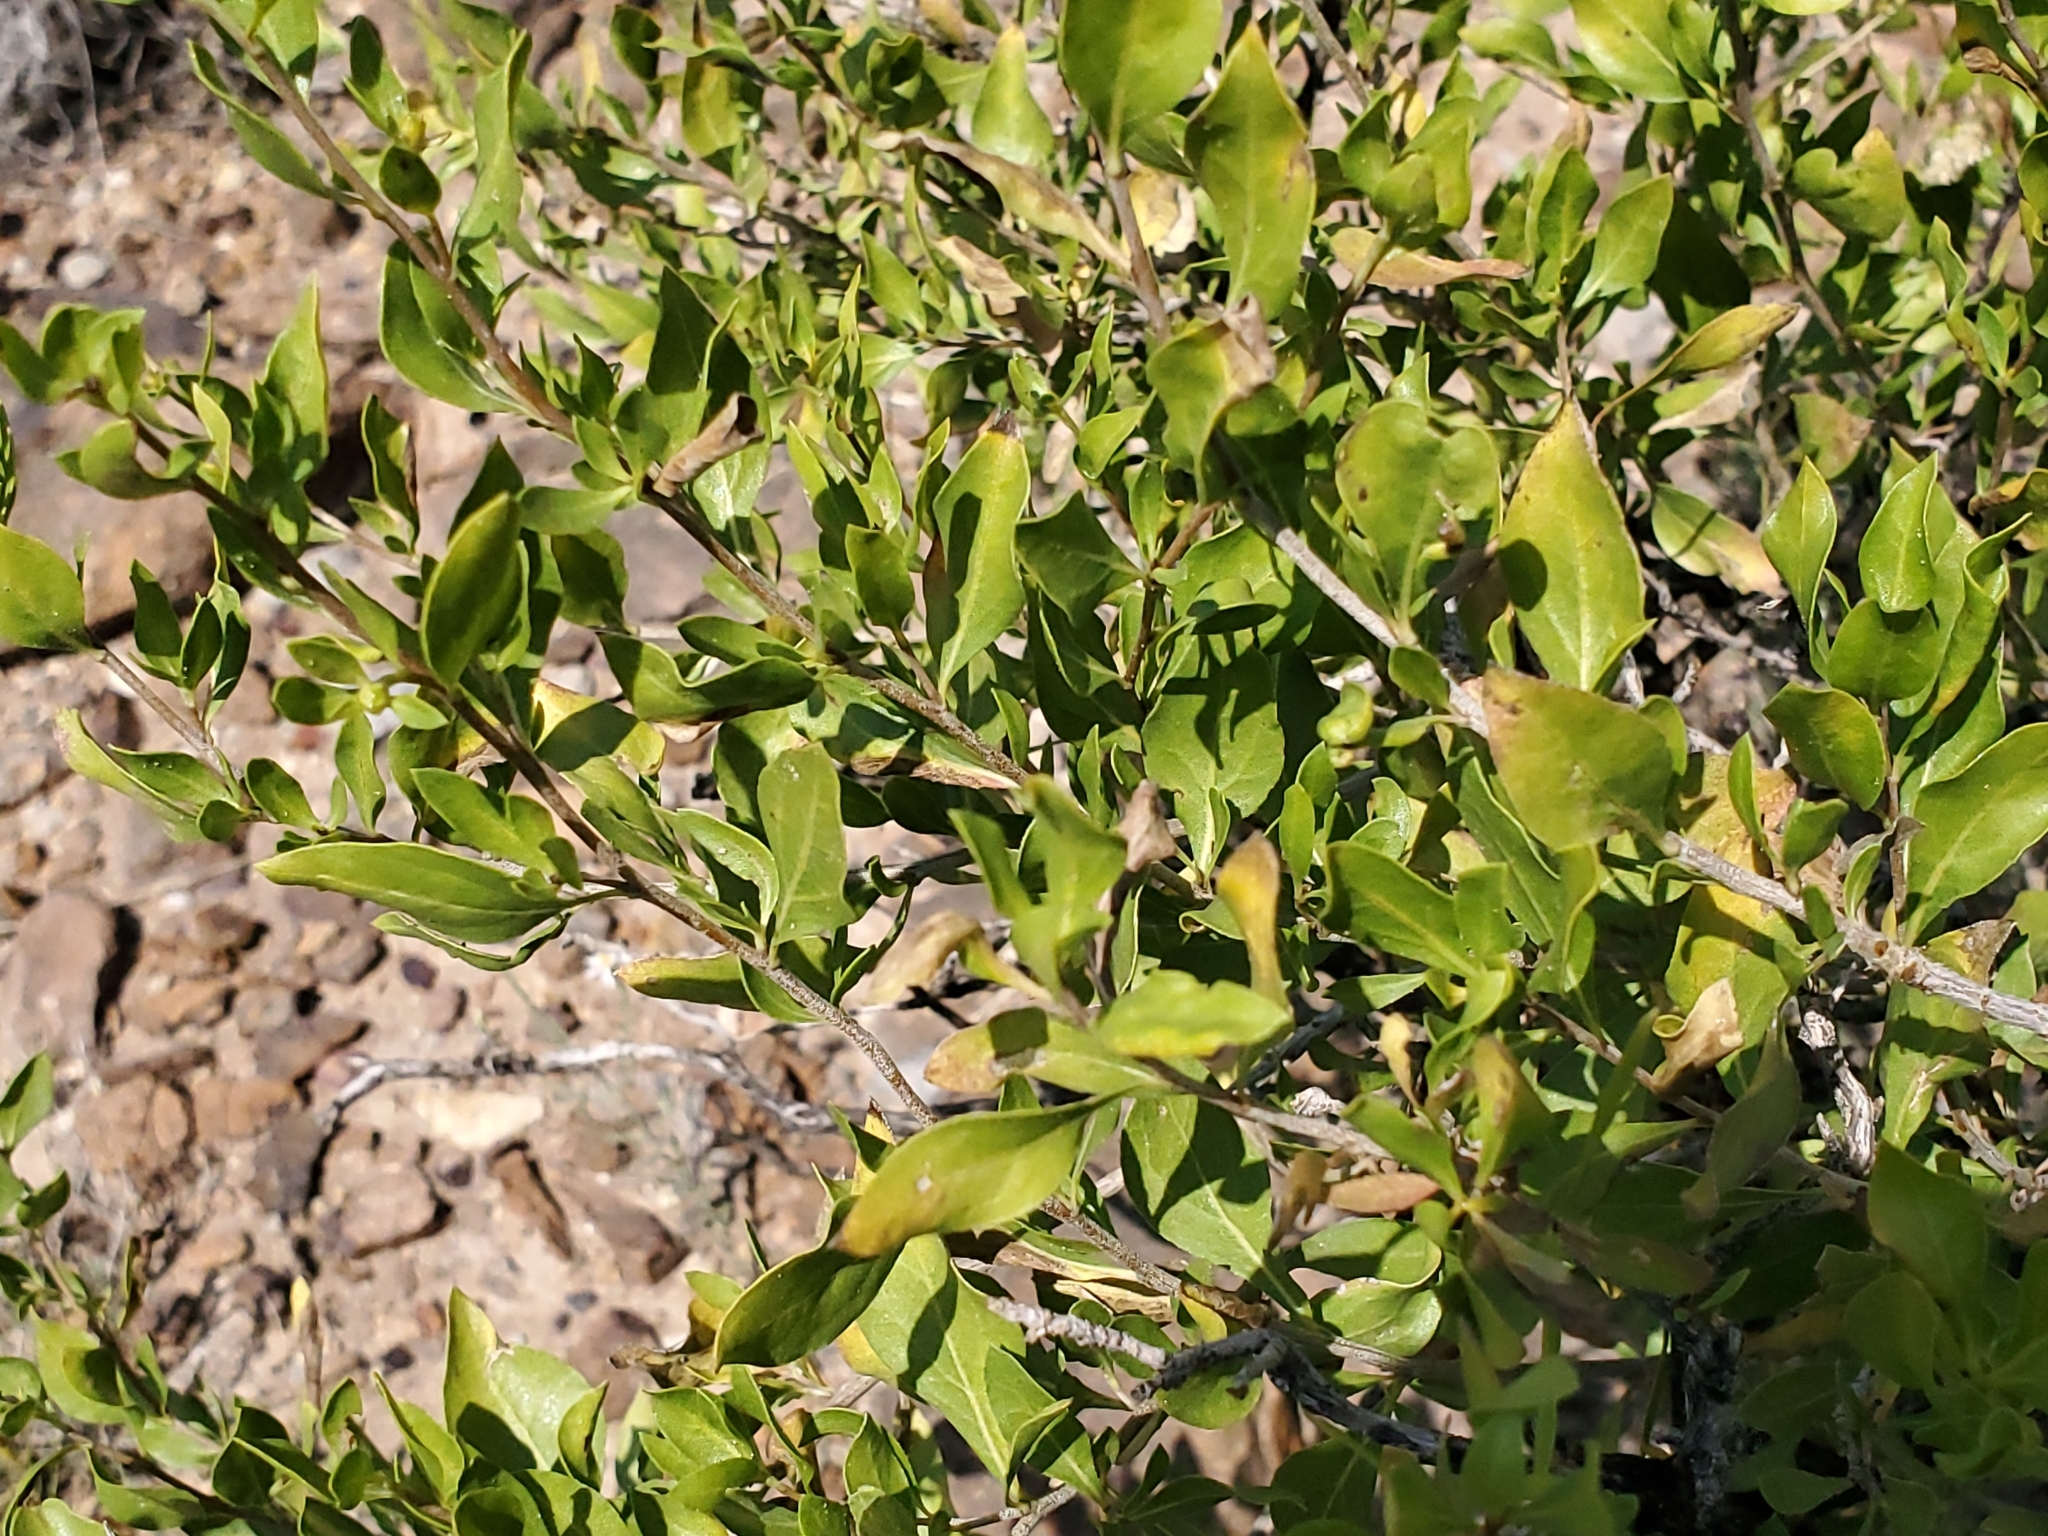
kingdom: Plantae
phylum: Tracheophyta
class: Magnoliopsida
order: Asterales
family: Asteraceae
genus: Flourensia
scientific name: Flourensia cernua
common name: Varnishbush
